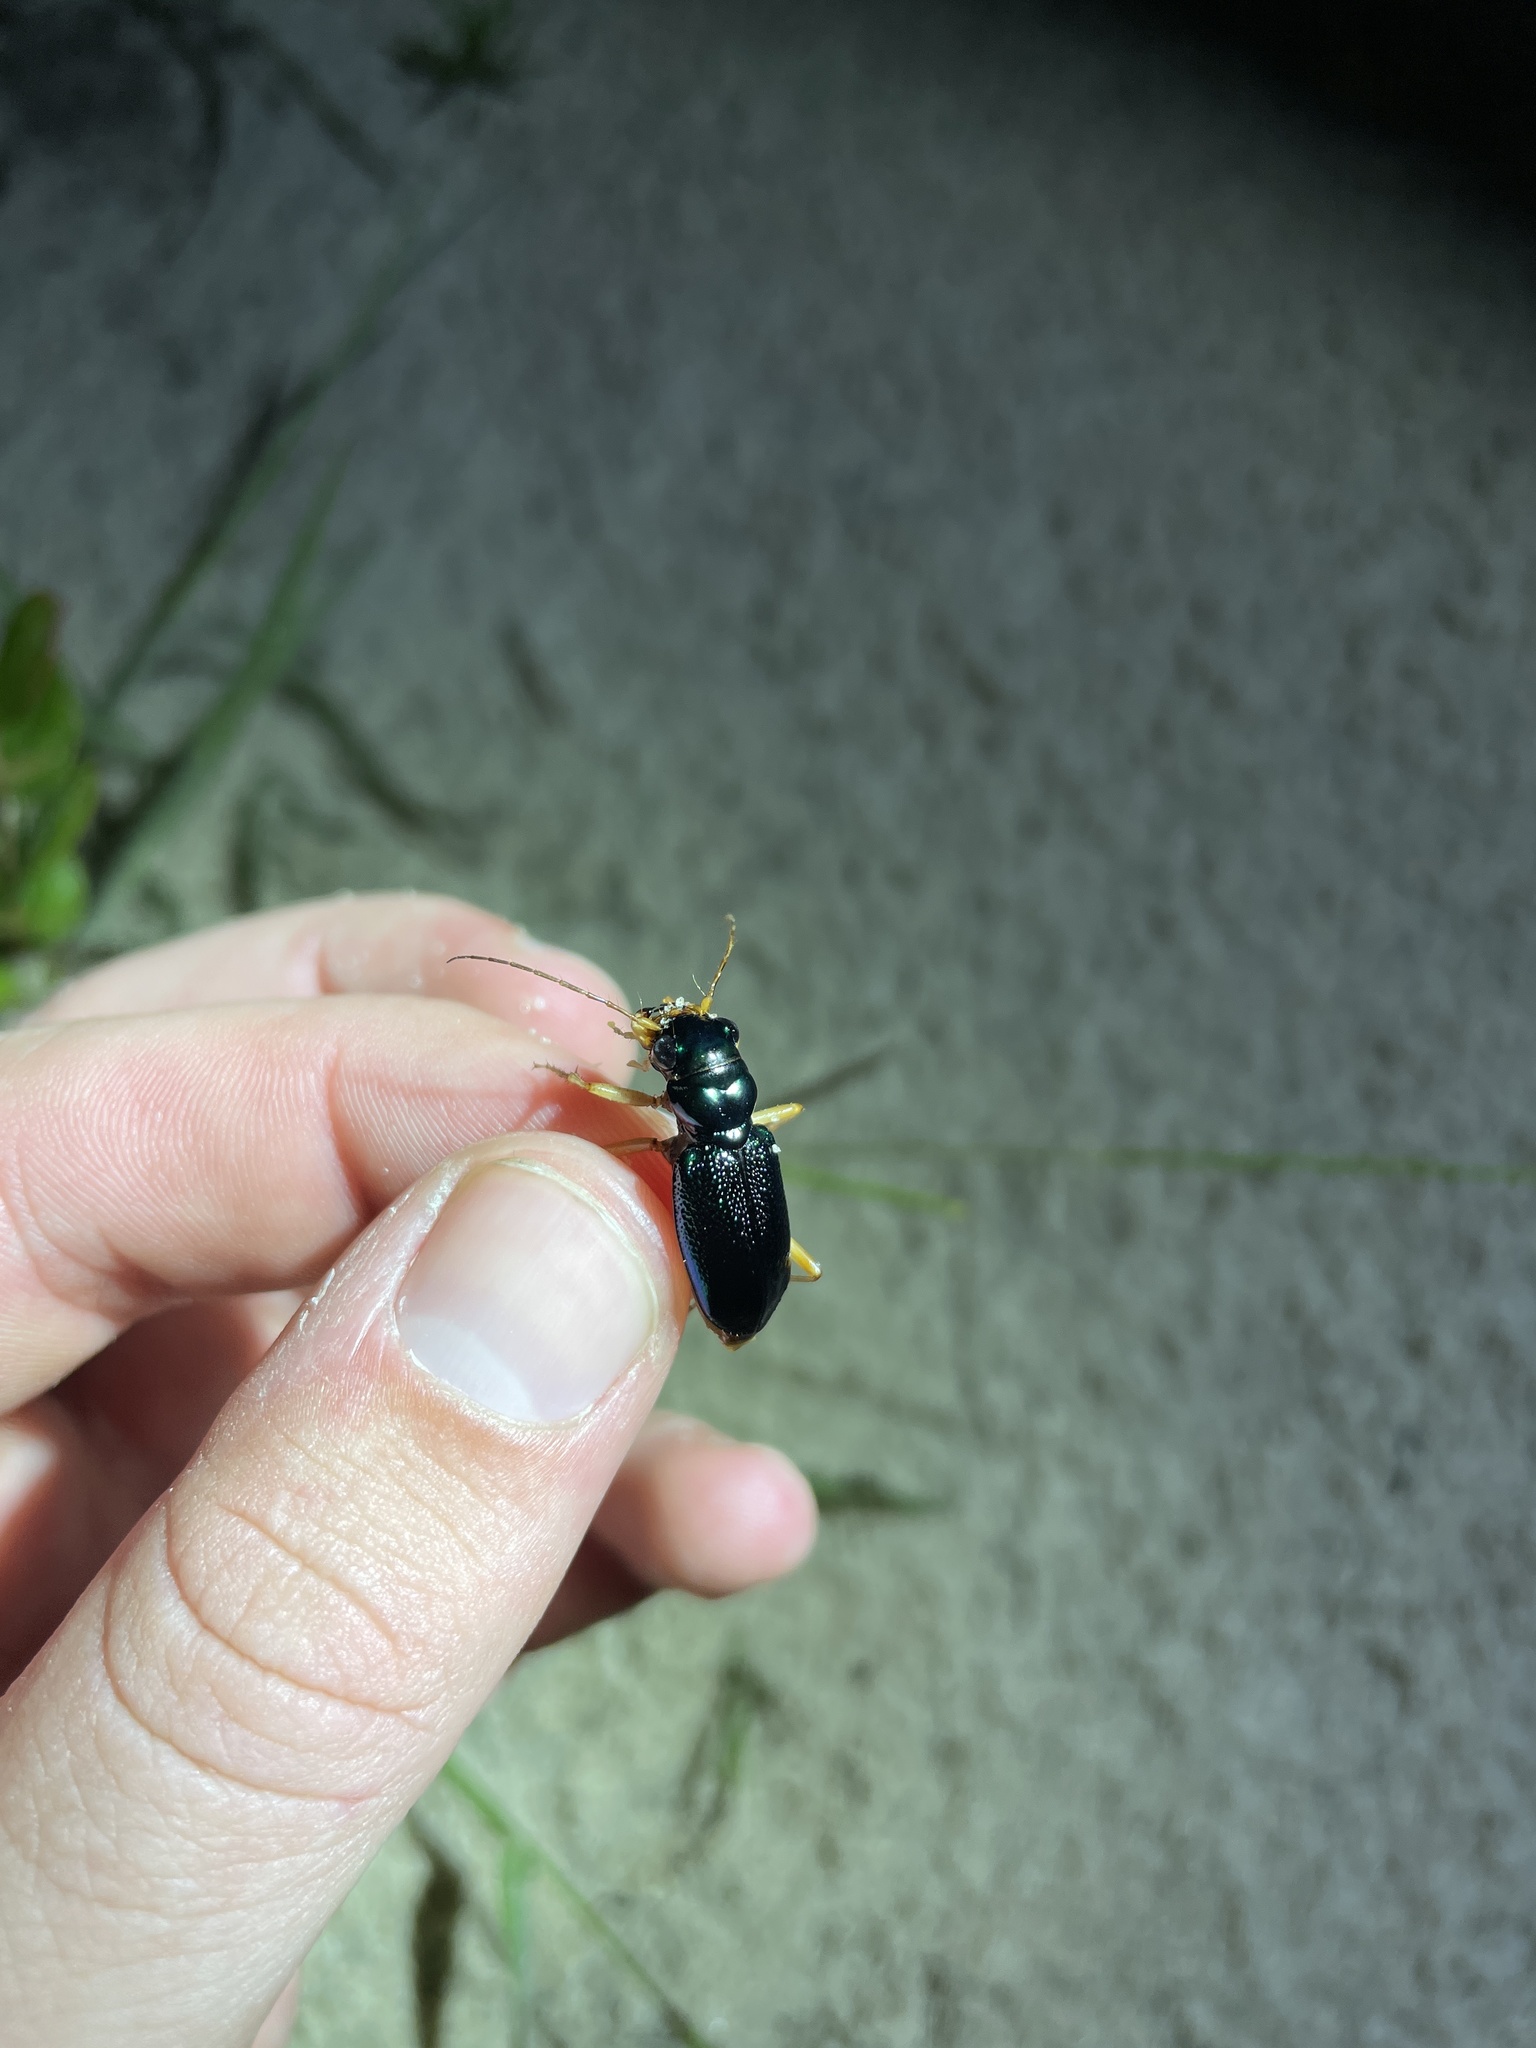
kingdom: Animalia
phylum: Arthropoda
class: Insecta
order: Coleoptera
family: Carabidae
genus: Tetracha
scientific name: Tetracha virginica
